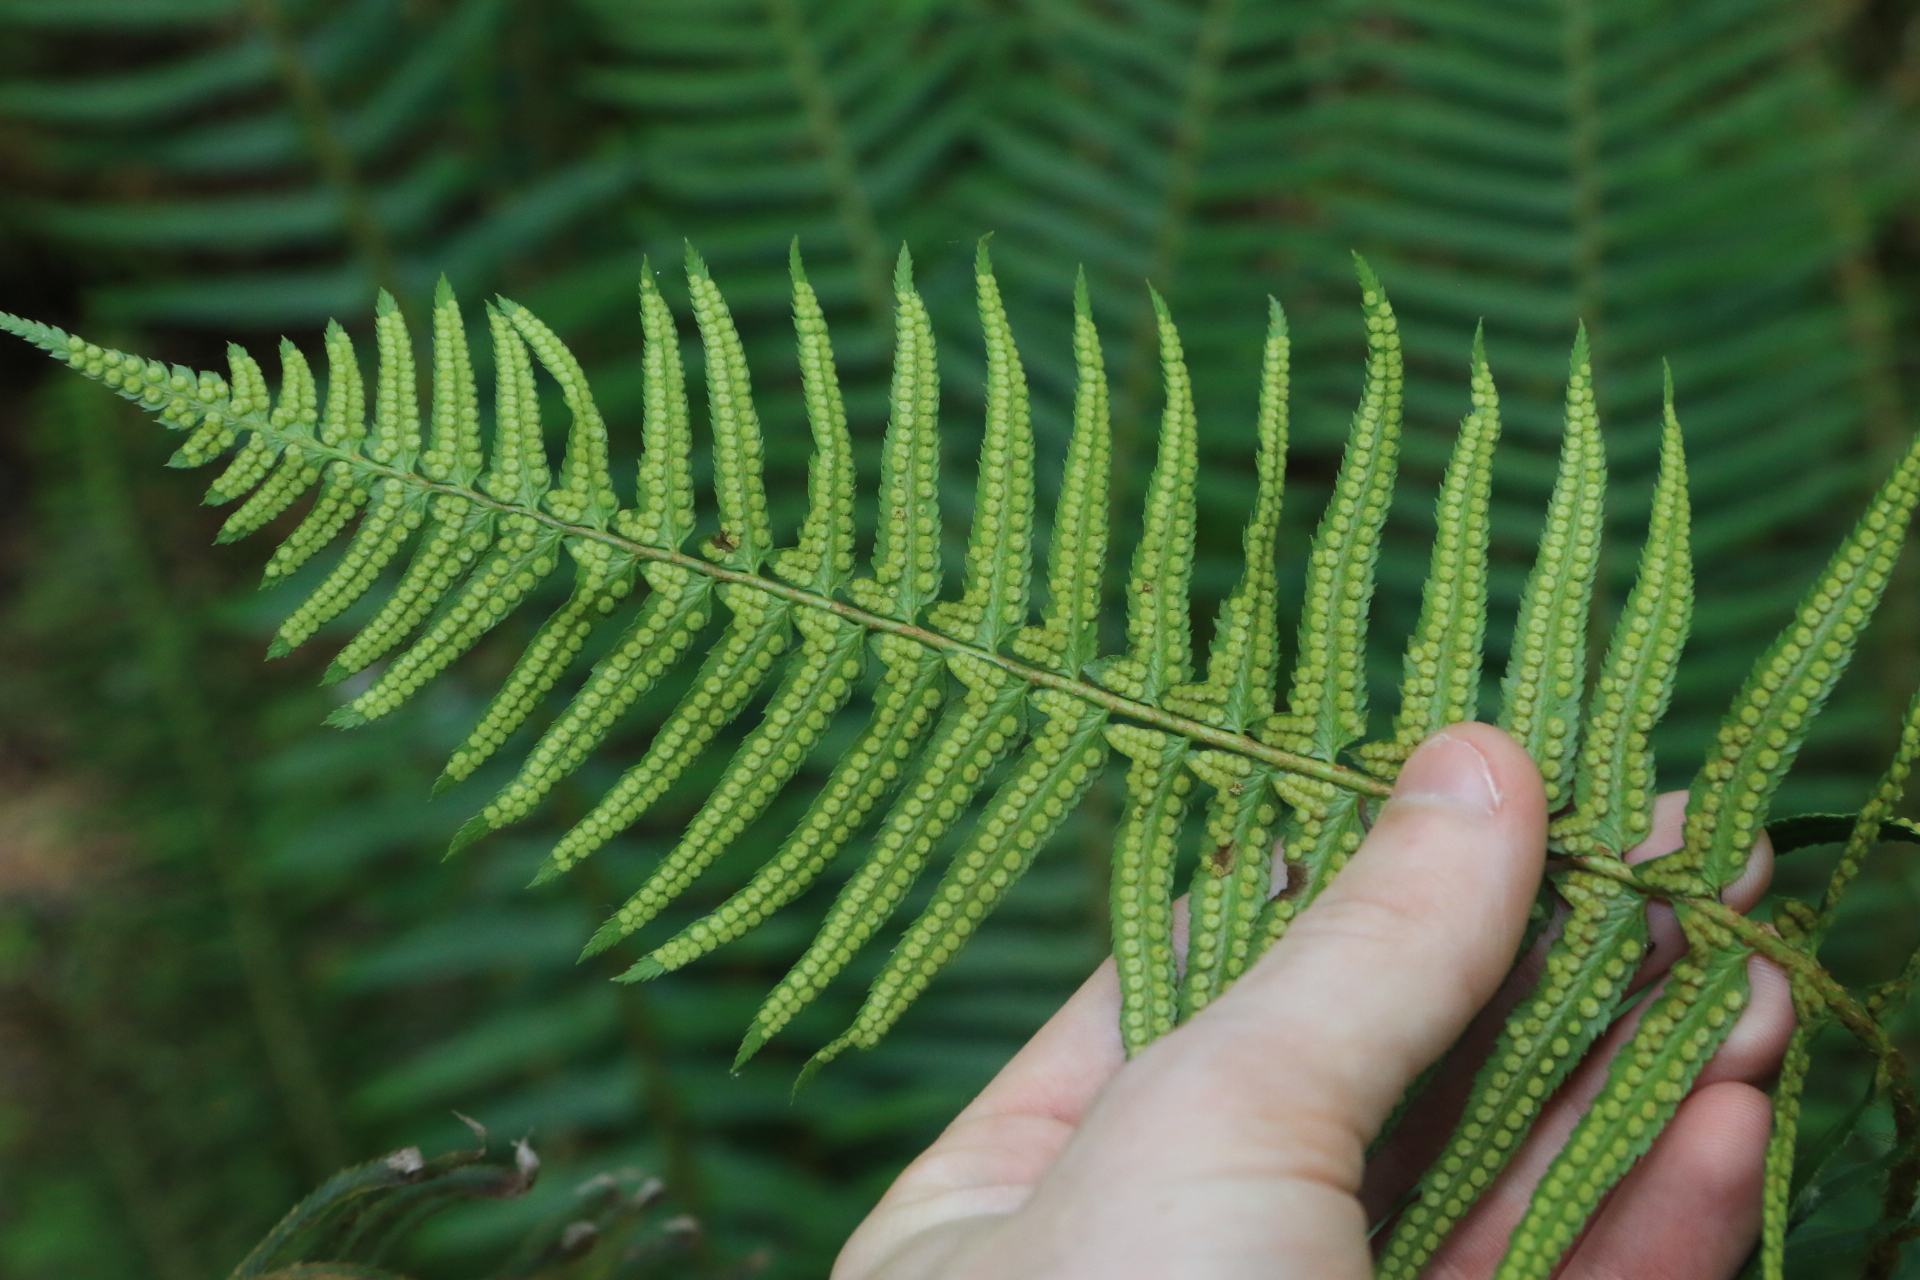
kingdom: Plantae
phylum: Tracheophyta
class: Polypodiopsida
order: Polypodiales
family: Dryopteridaceae
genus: Polystichum
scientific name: Polystichum munitum
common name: Western sword-fern
